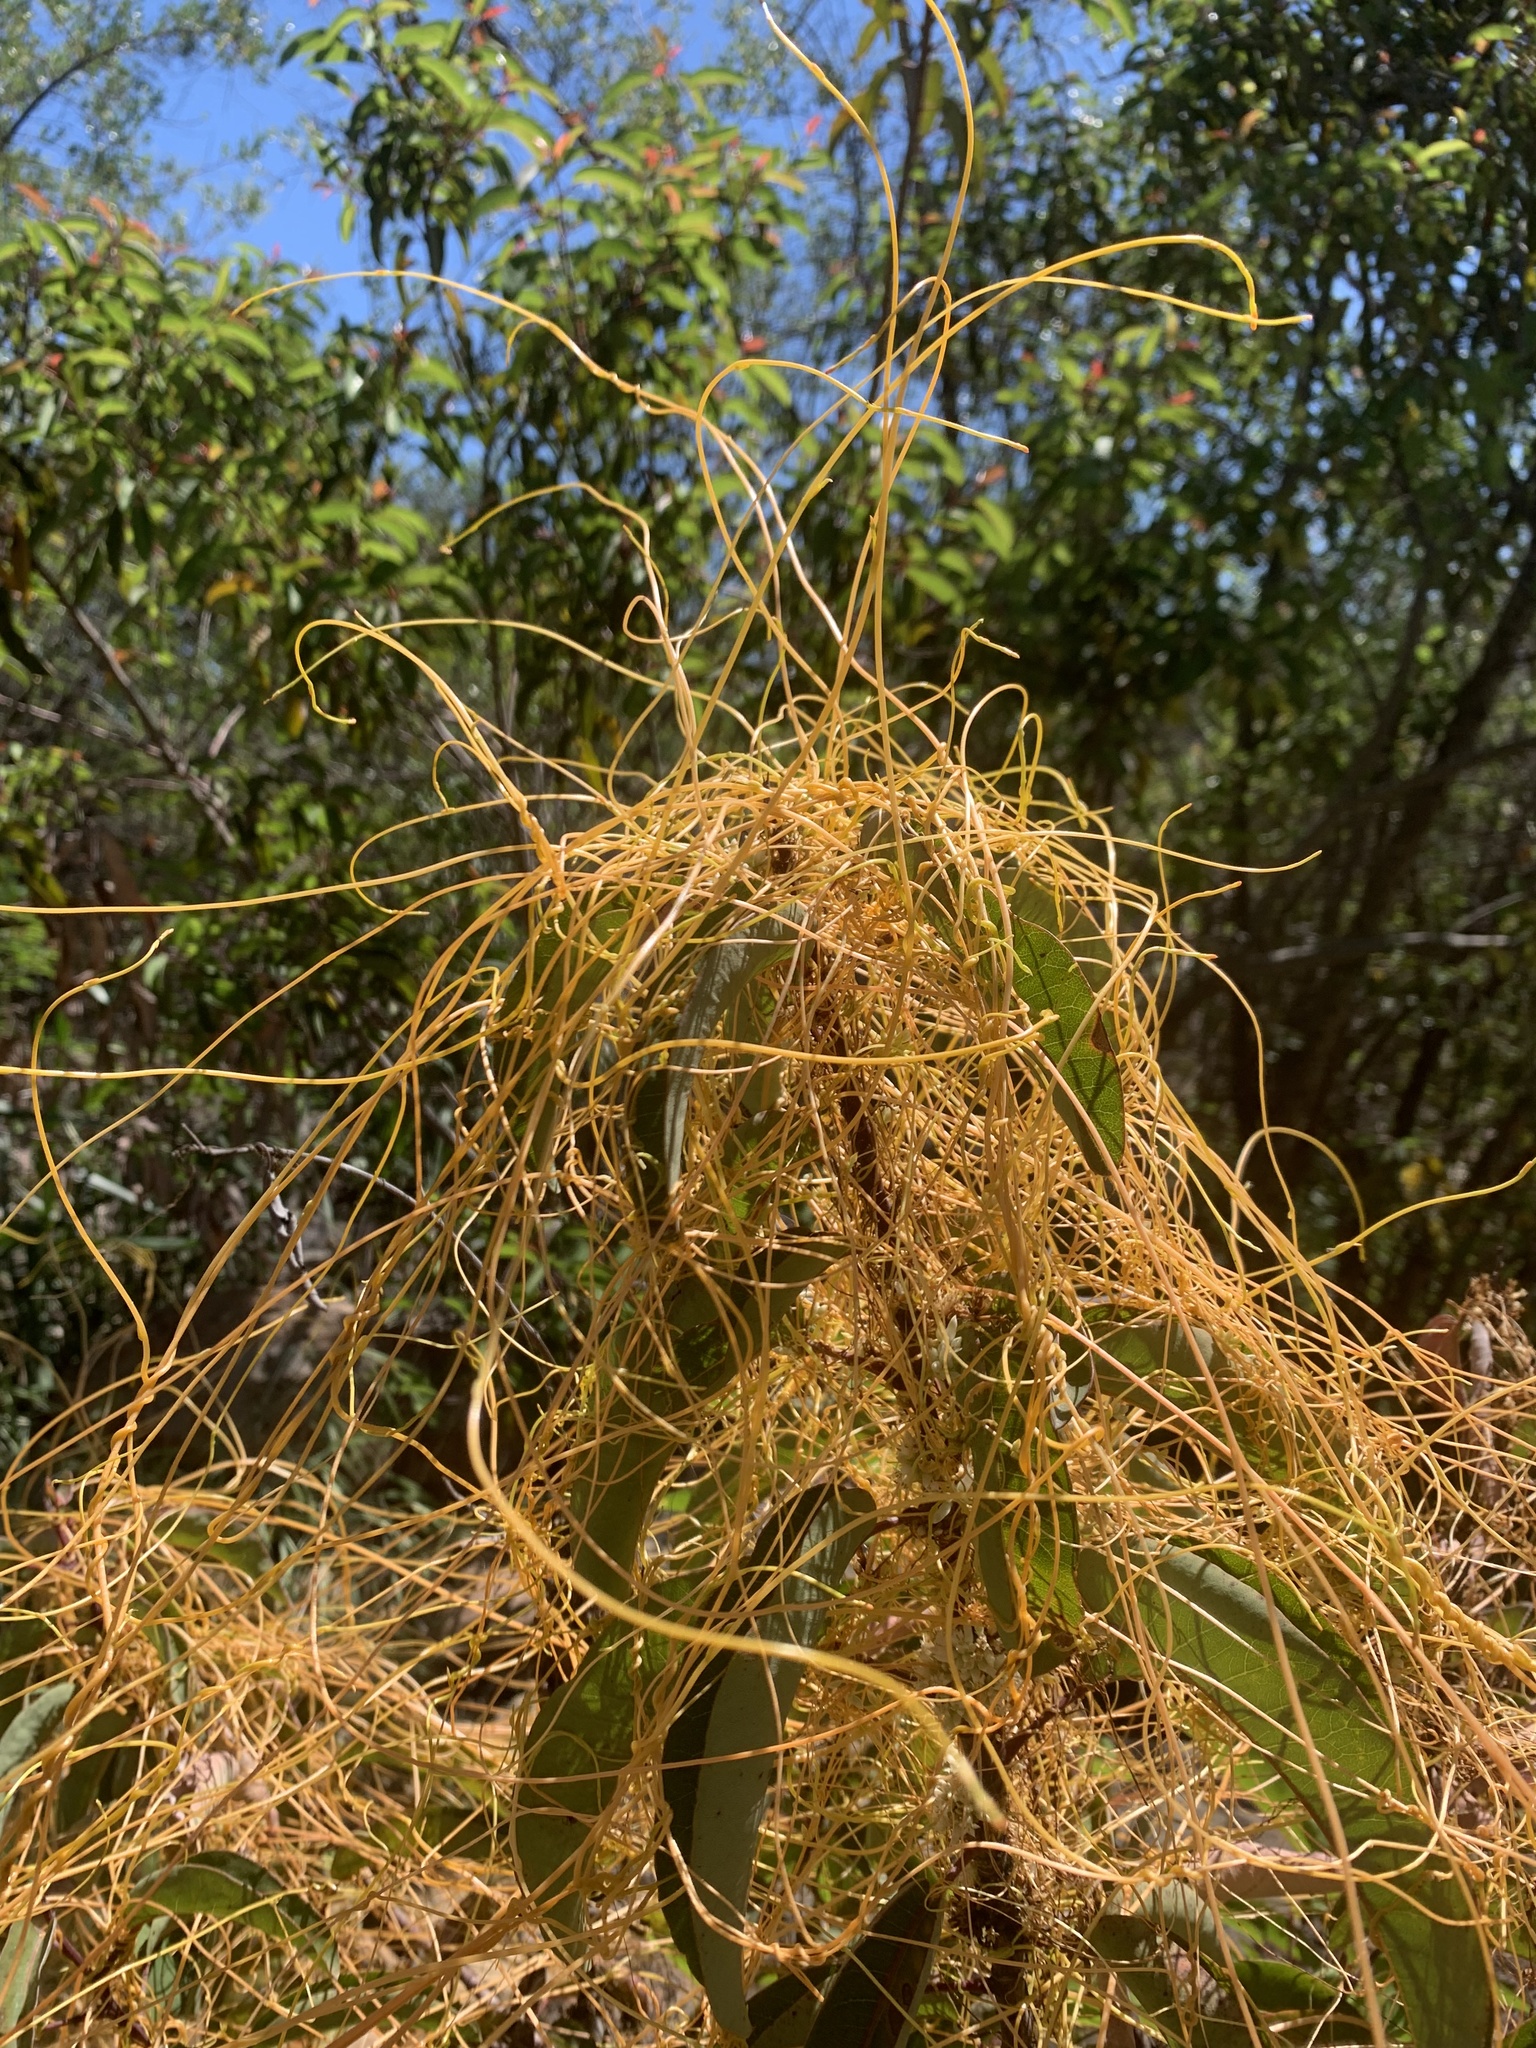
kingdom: Plantae
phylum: Tracheophyta
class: Magnoliopsida
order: Solanales
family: Convolvulaceae
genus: Cuscuta
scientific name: Cuscuta subinclusa
